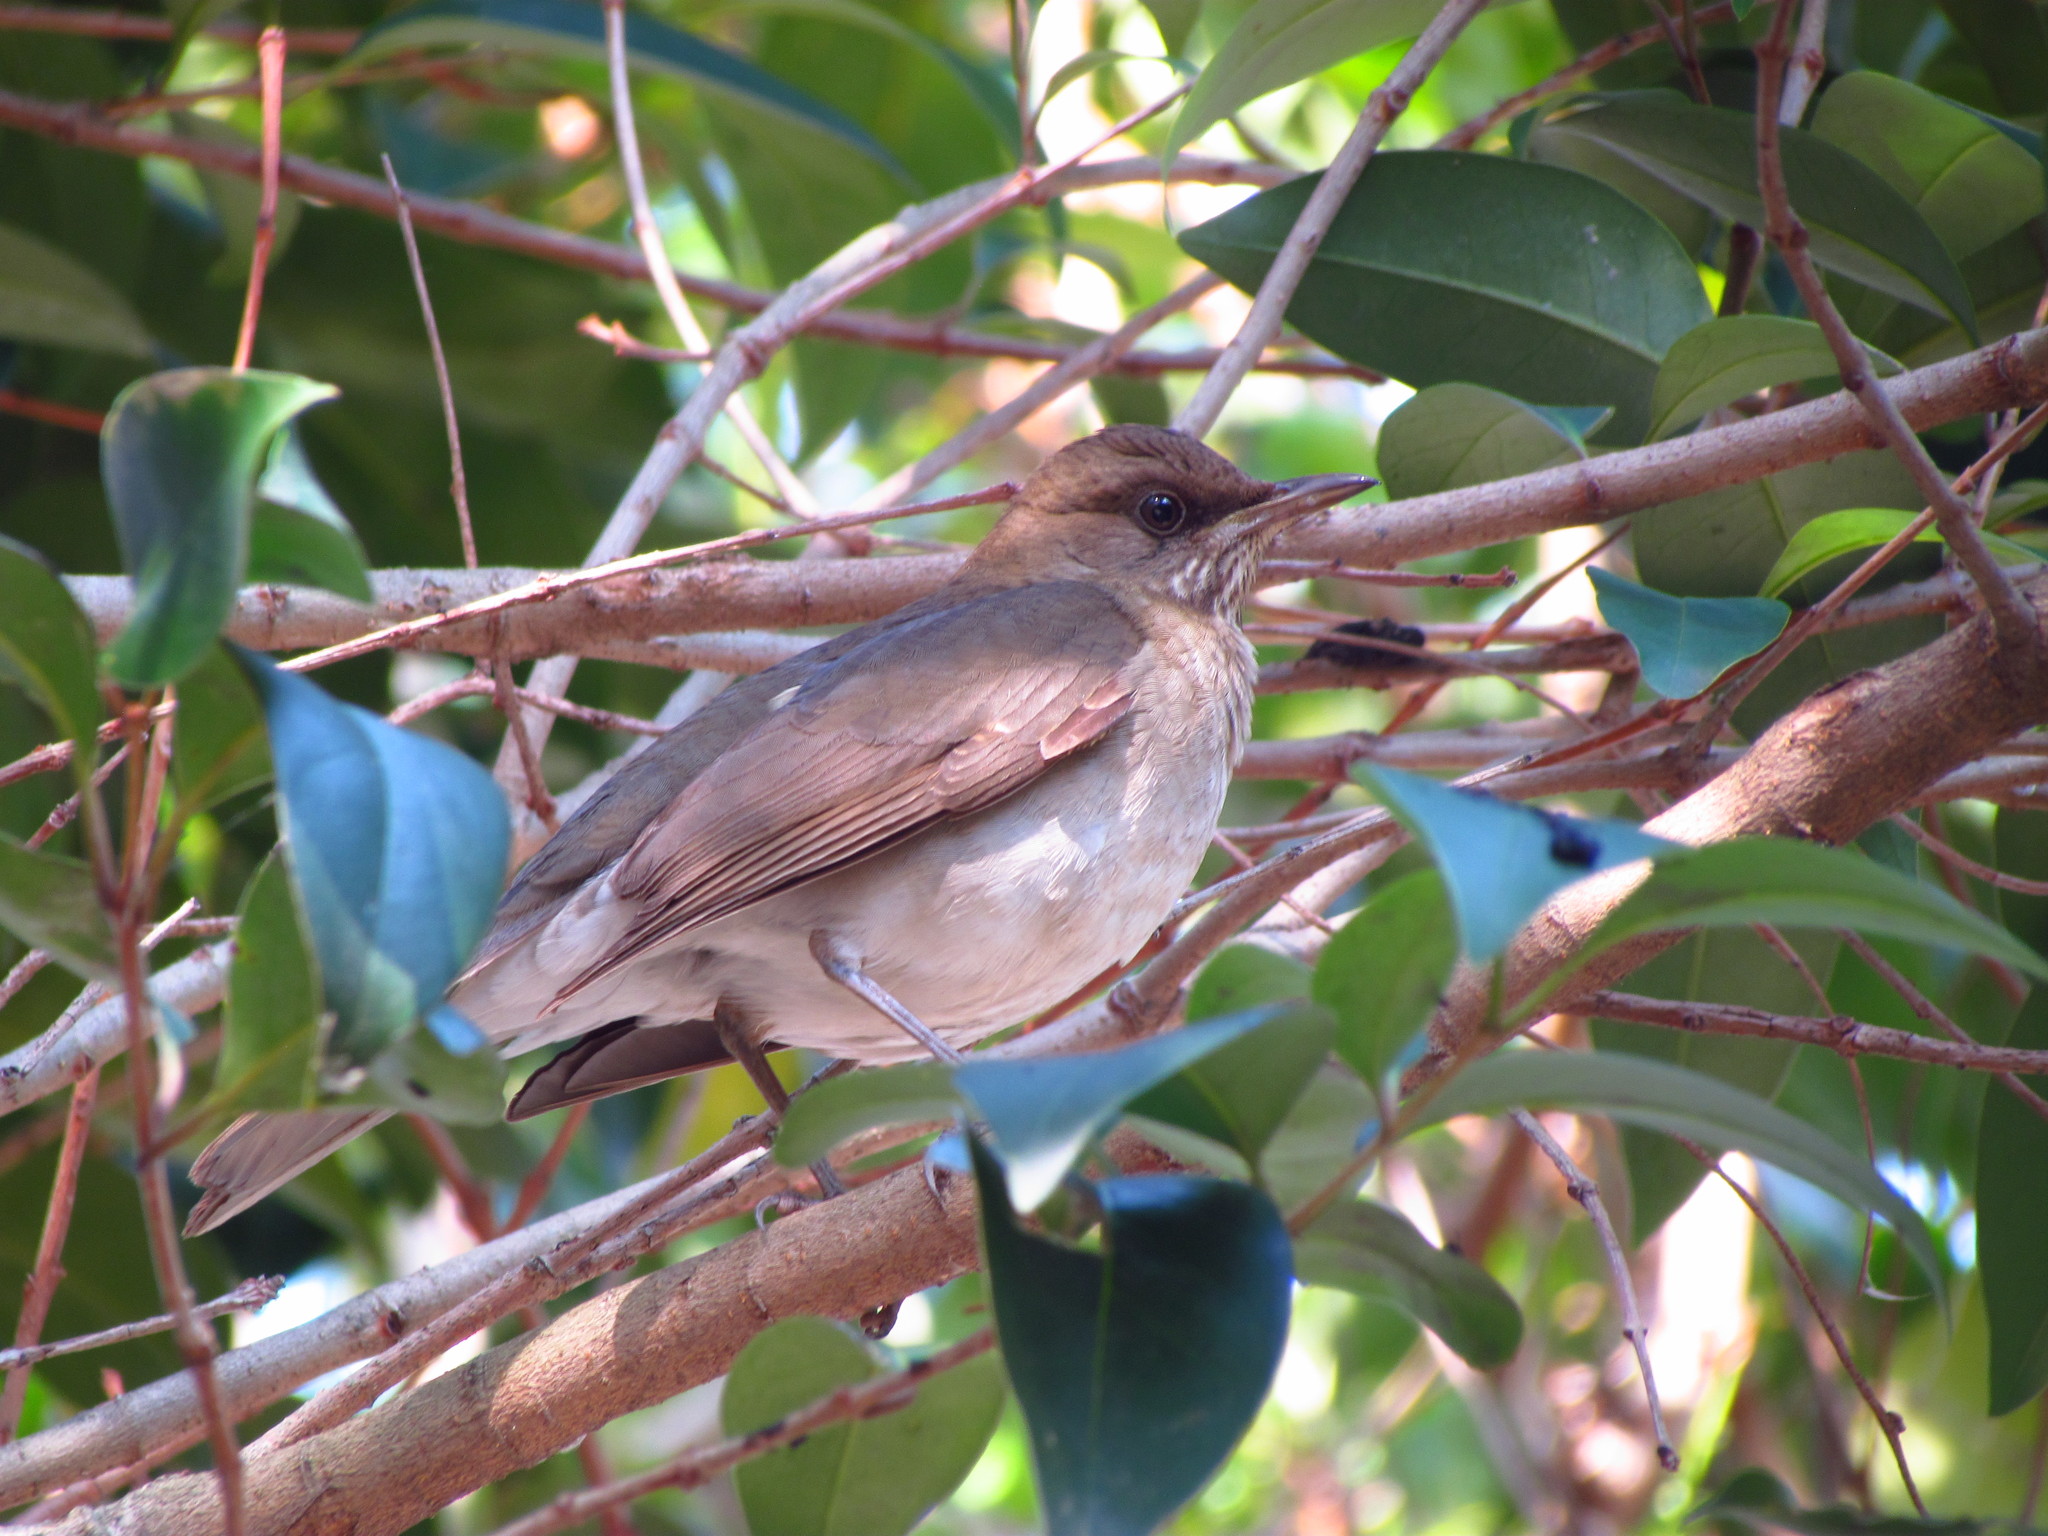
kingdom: Animalia
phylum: Chordata
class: Aves
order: Passeriformes
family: Turdidae
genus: Turdus
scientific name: Turdus amaurochalinus
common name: Creamy-bellied thrush
